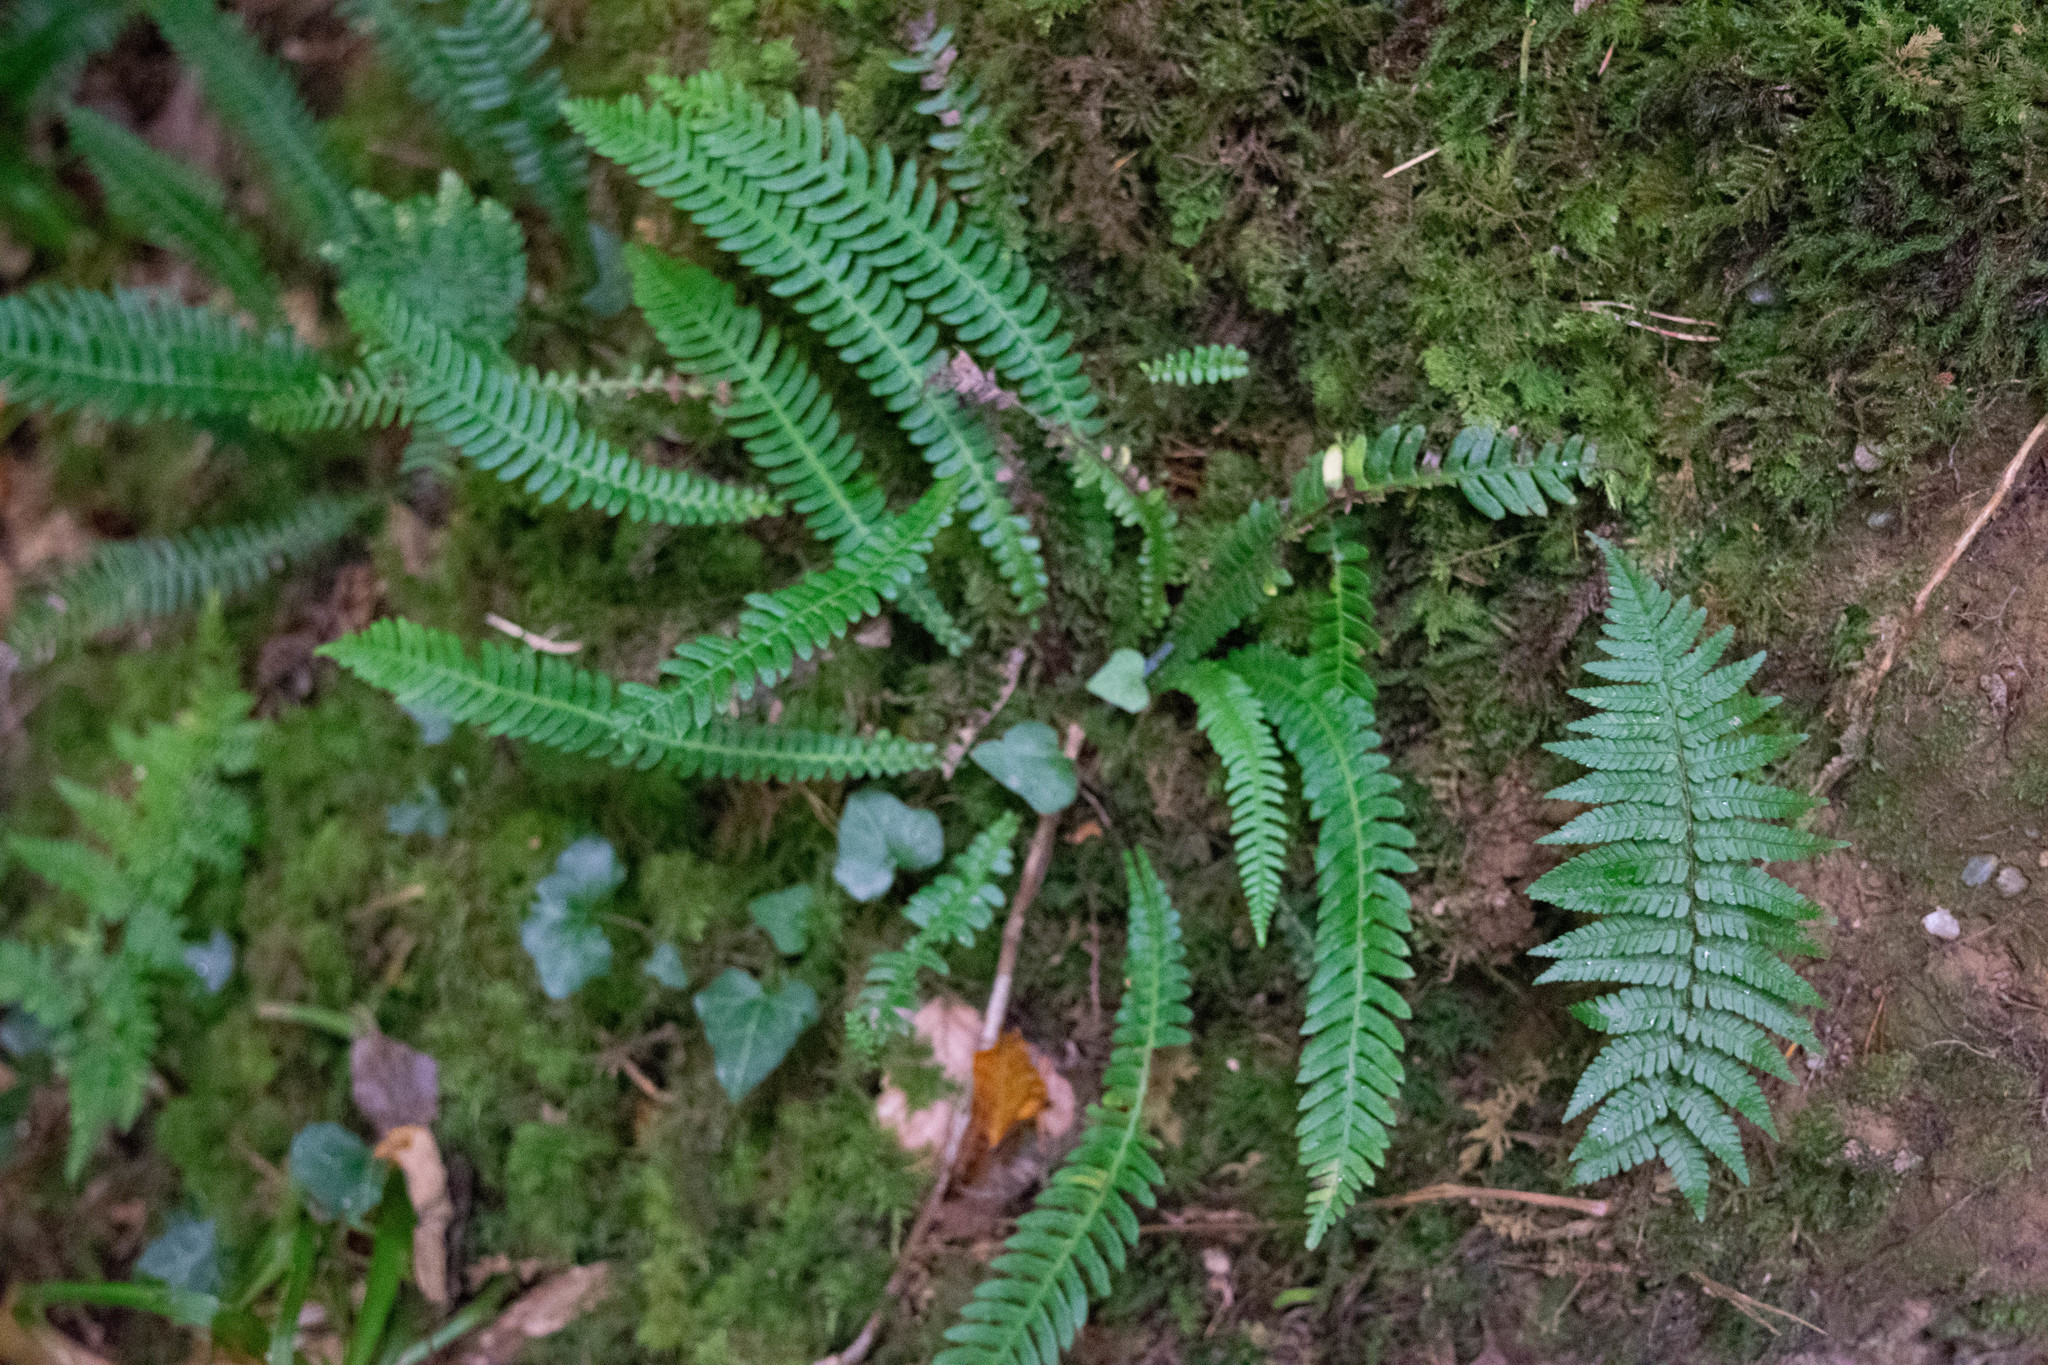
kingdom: Plantae
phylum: Tracheophyta
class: Polypodiopsida
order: Polypodiales
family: Blechnaceae
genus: Struthiopteris
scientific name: Struthiopteris spicant
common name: Deer fern
